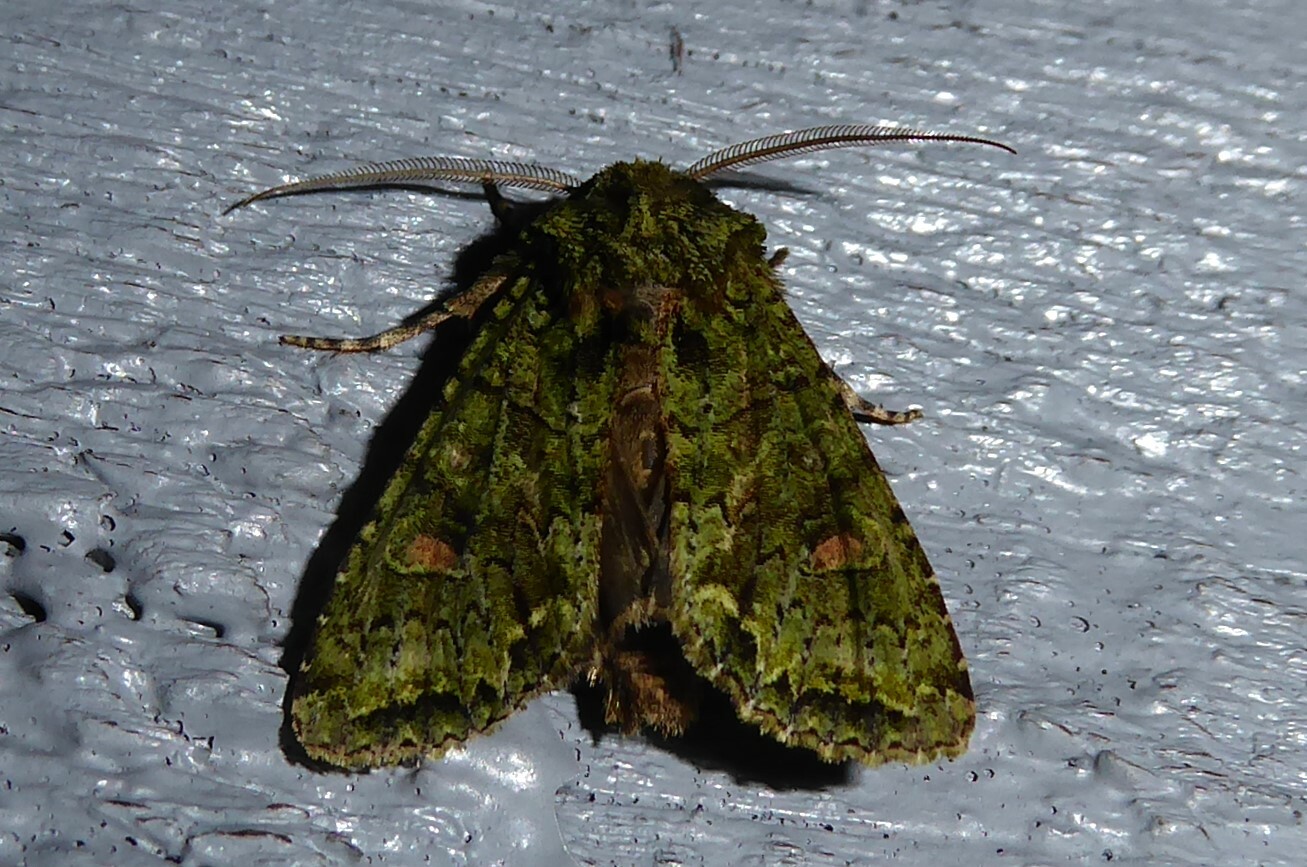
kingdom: Animalia
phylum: Arthropoda
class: Insecta
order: Lepidoptera
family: Noctuidae
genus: Ichneutica
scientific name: Ichneutica
